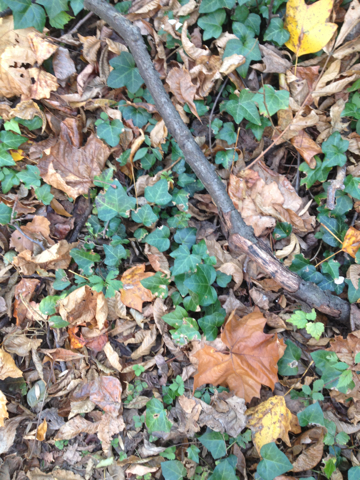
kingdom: Plantae
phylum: Tracheophyta
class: Magnoliopsida
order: Apiales
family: Araliaceae
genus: Hedera
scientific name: Hedera helix
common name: Ivy
